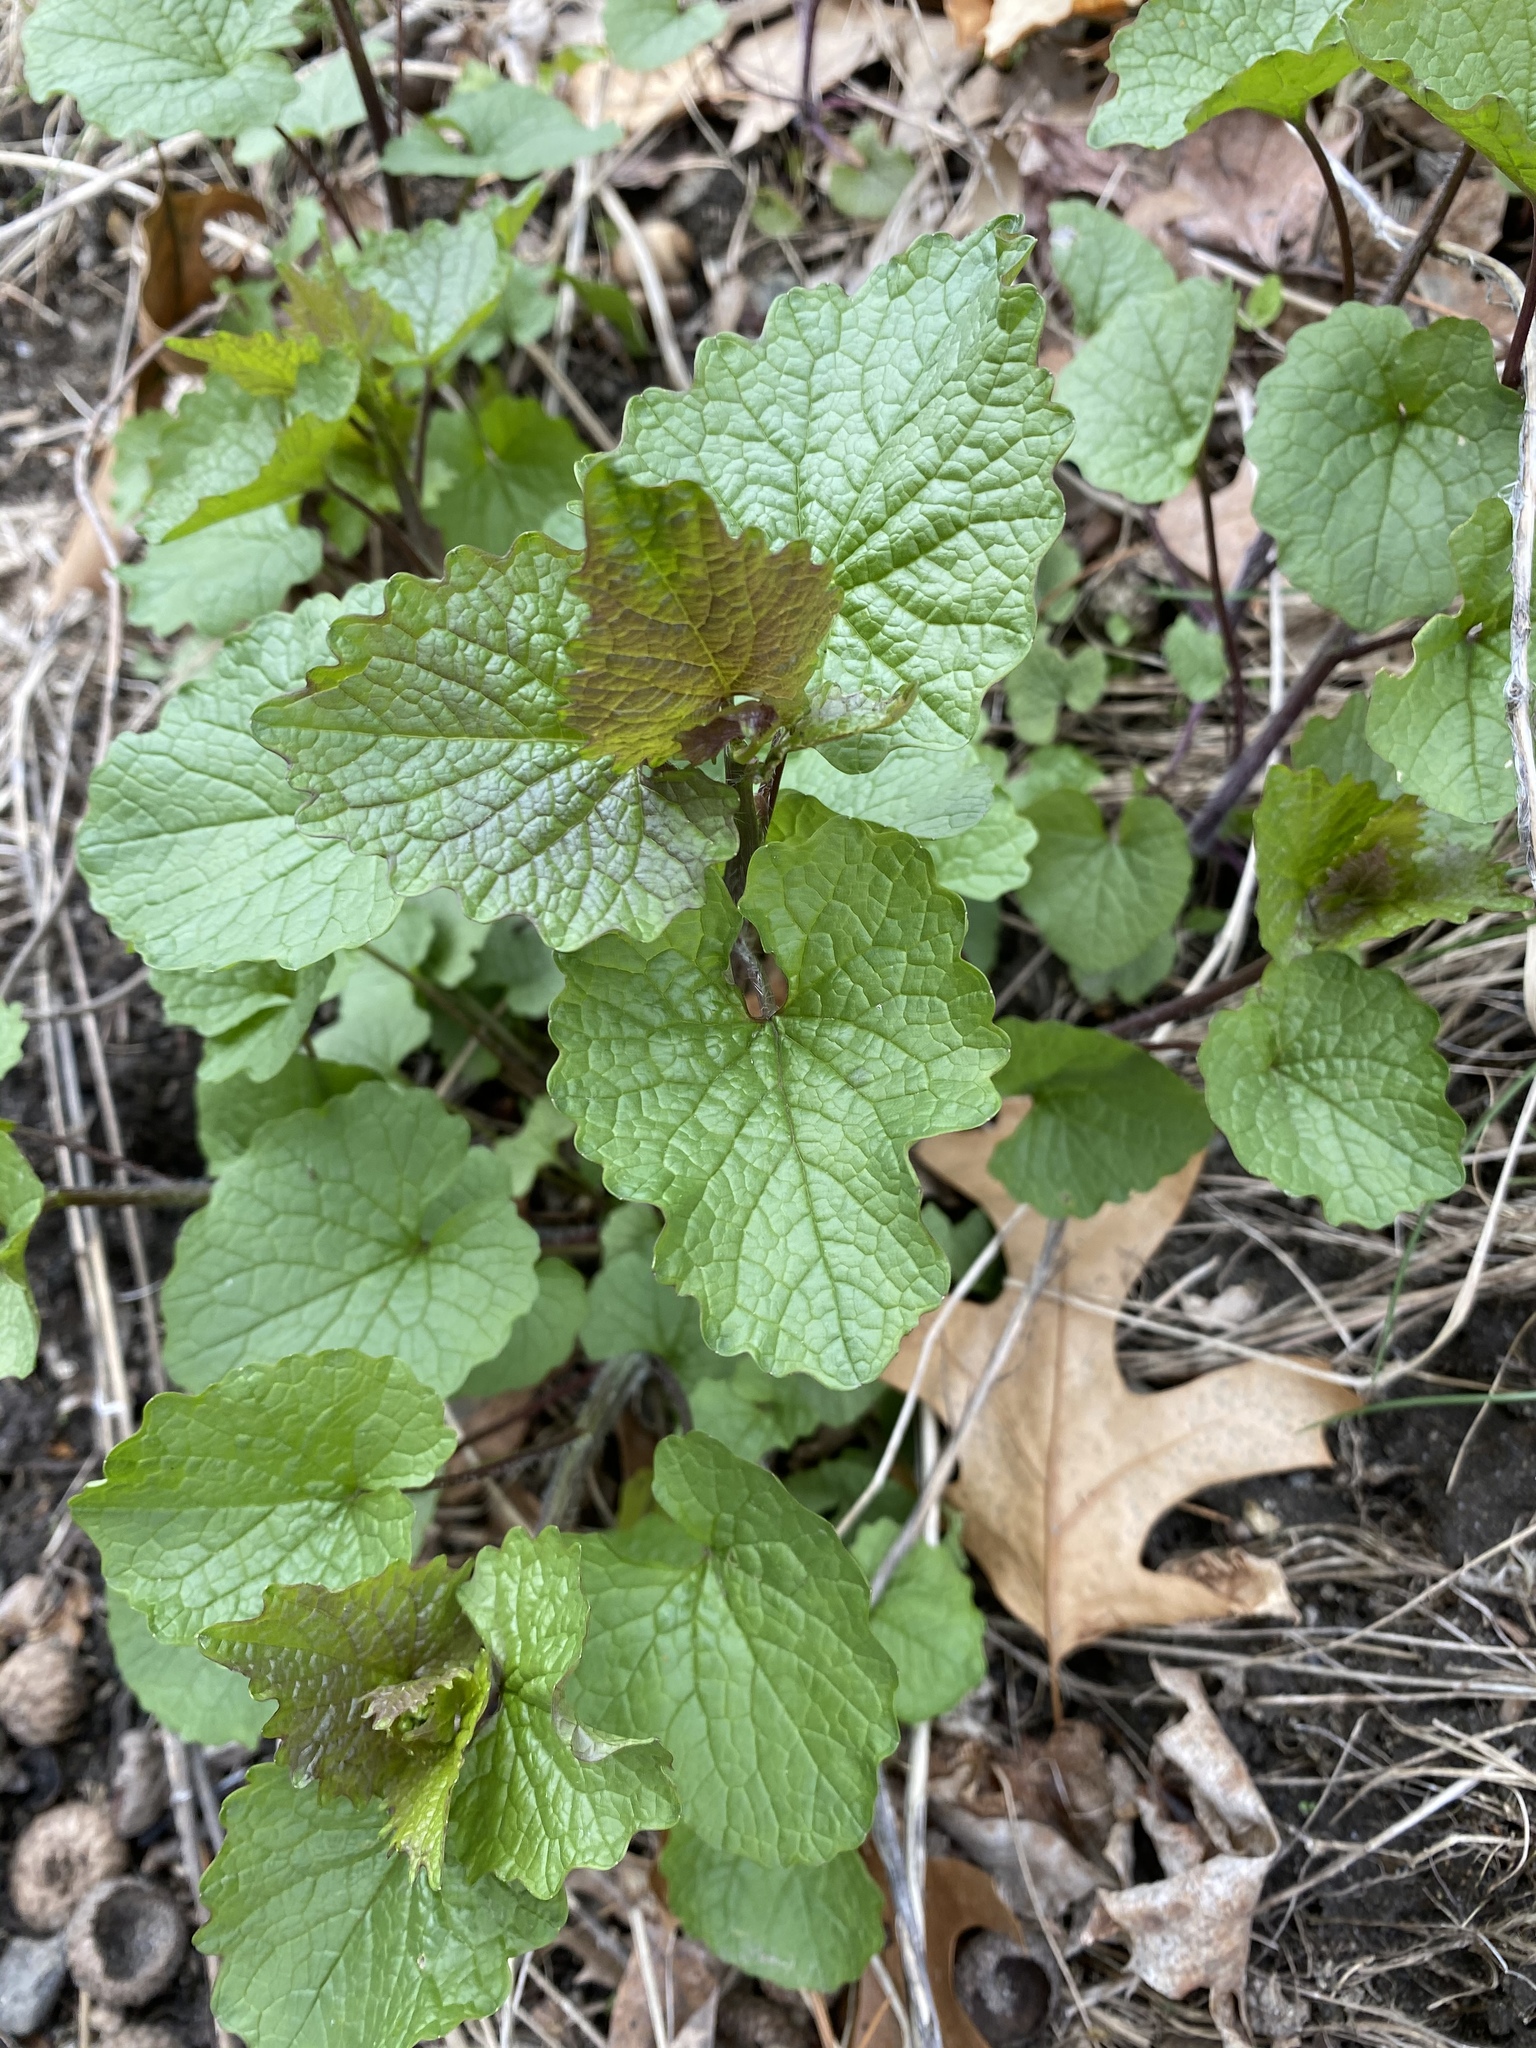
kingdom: Plantae
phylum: Tracheophyta
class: Magnoliopsida
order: Brassicales
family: Brassicaceae
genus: Alliaria
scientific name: Alliaria petiolata
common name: Garlic mustard
